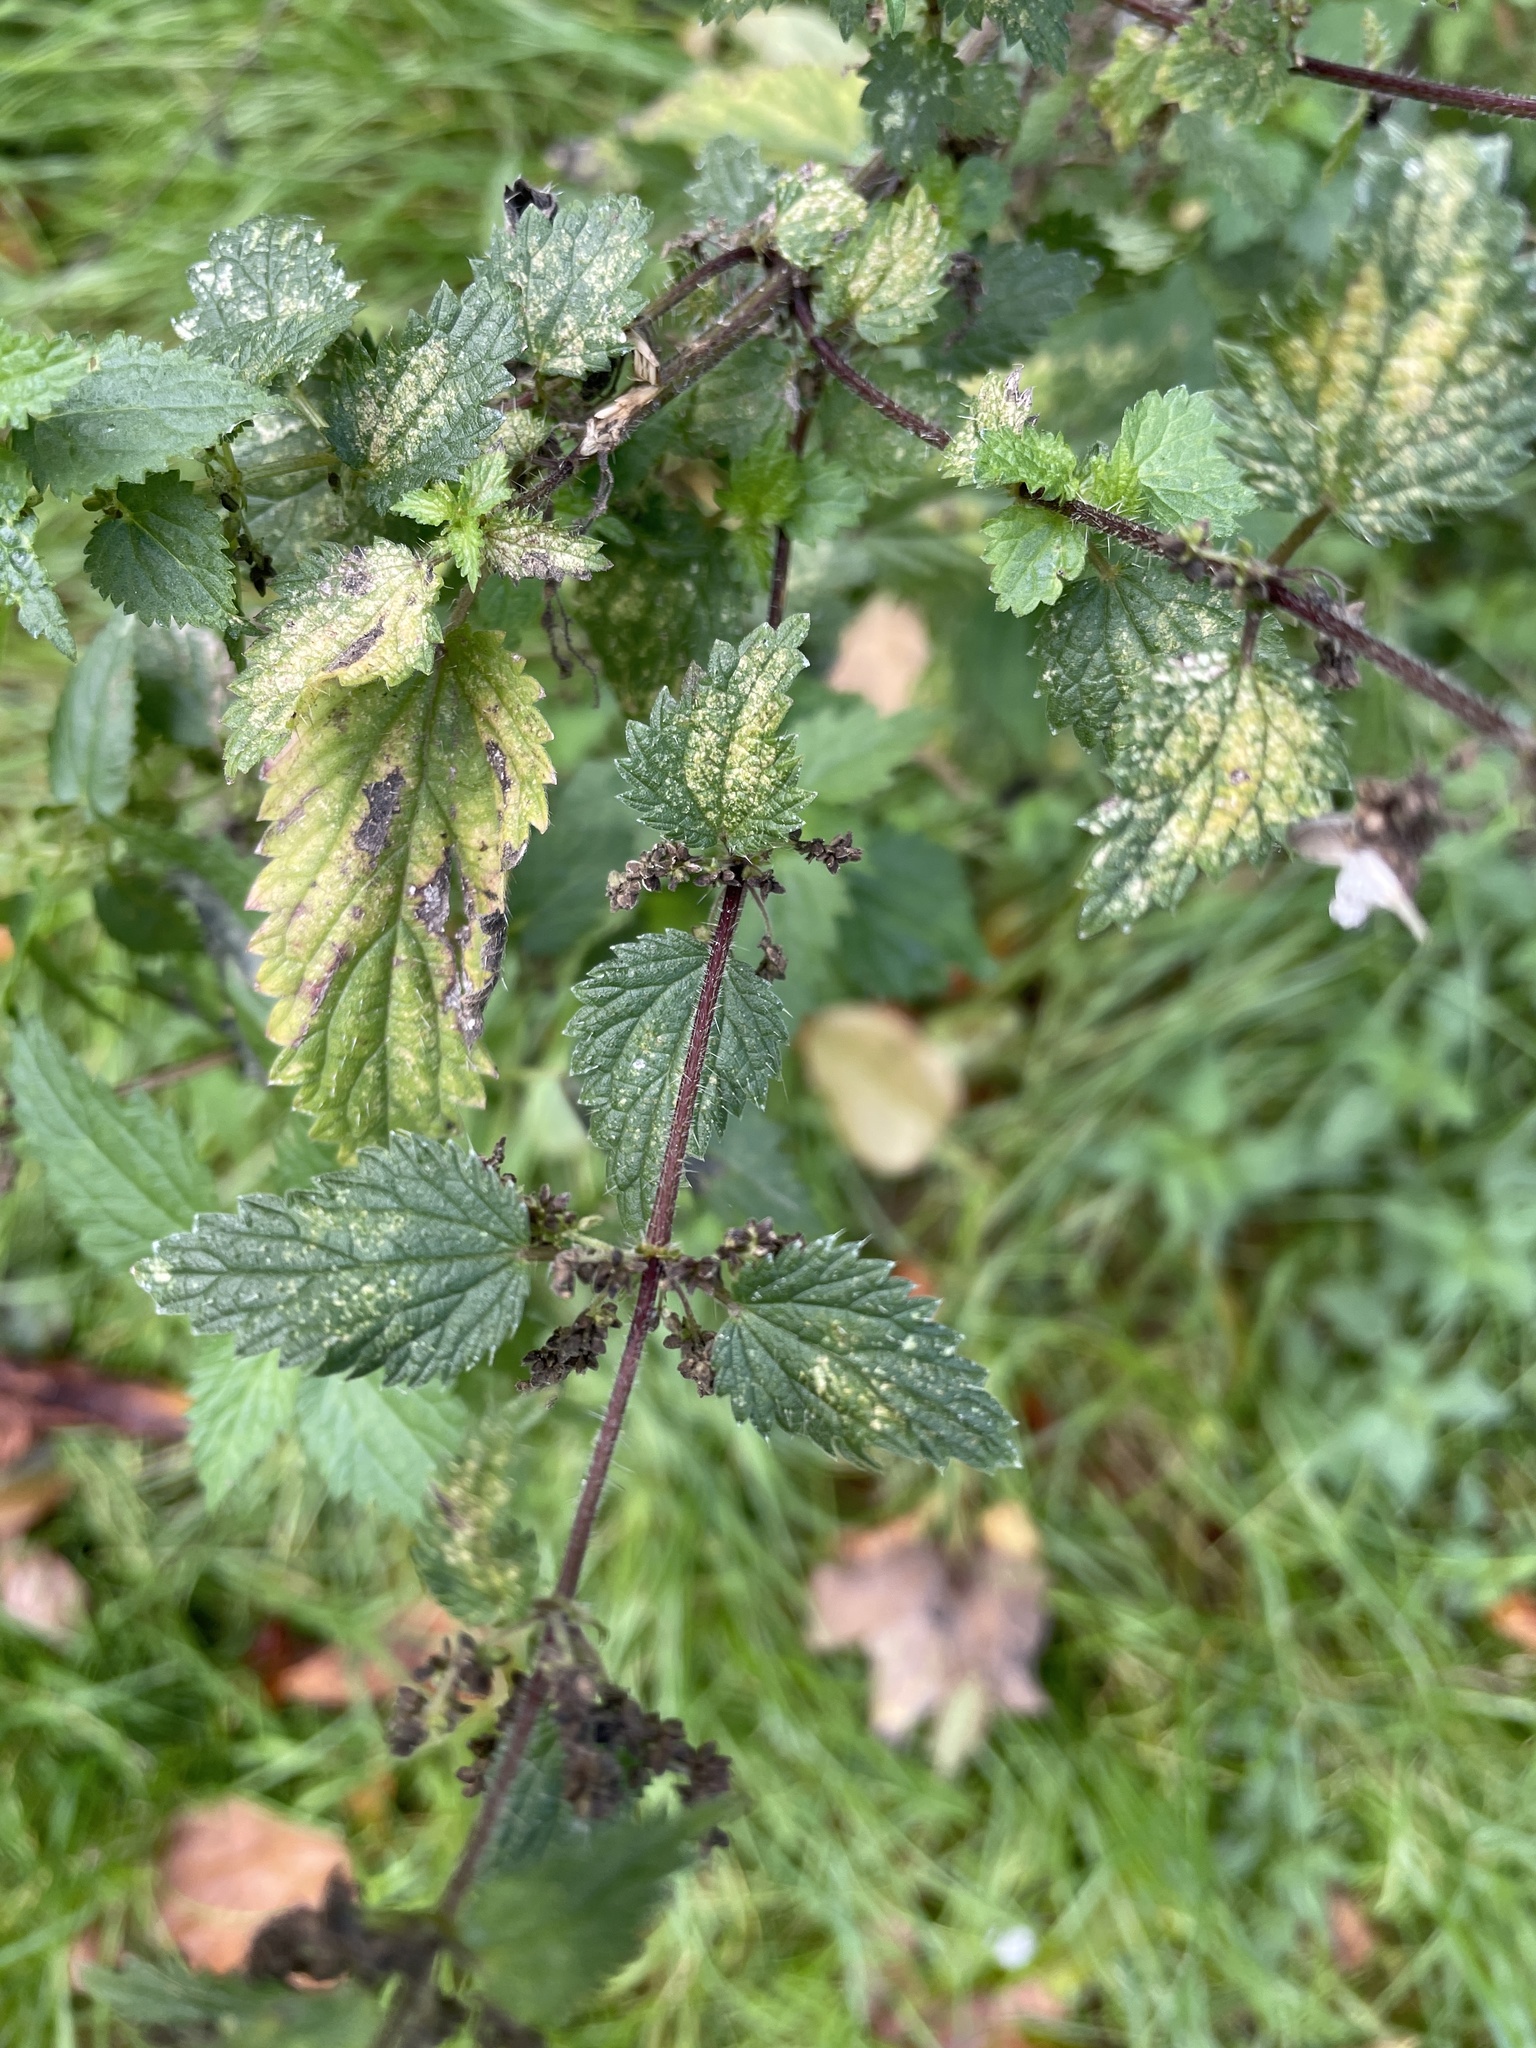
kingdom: Plantae
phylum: Tracheophyta
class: Magnoliopsida
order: Rosales
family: Urticaceae
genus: Urtica
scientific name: Urtica dioica
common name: Common nettle
